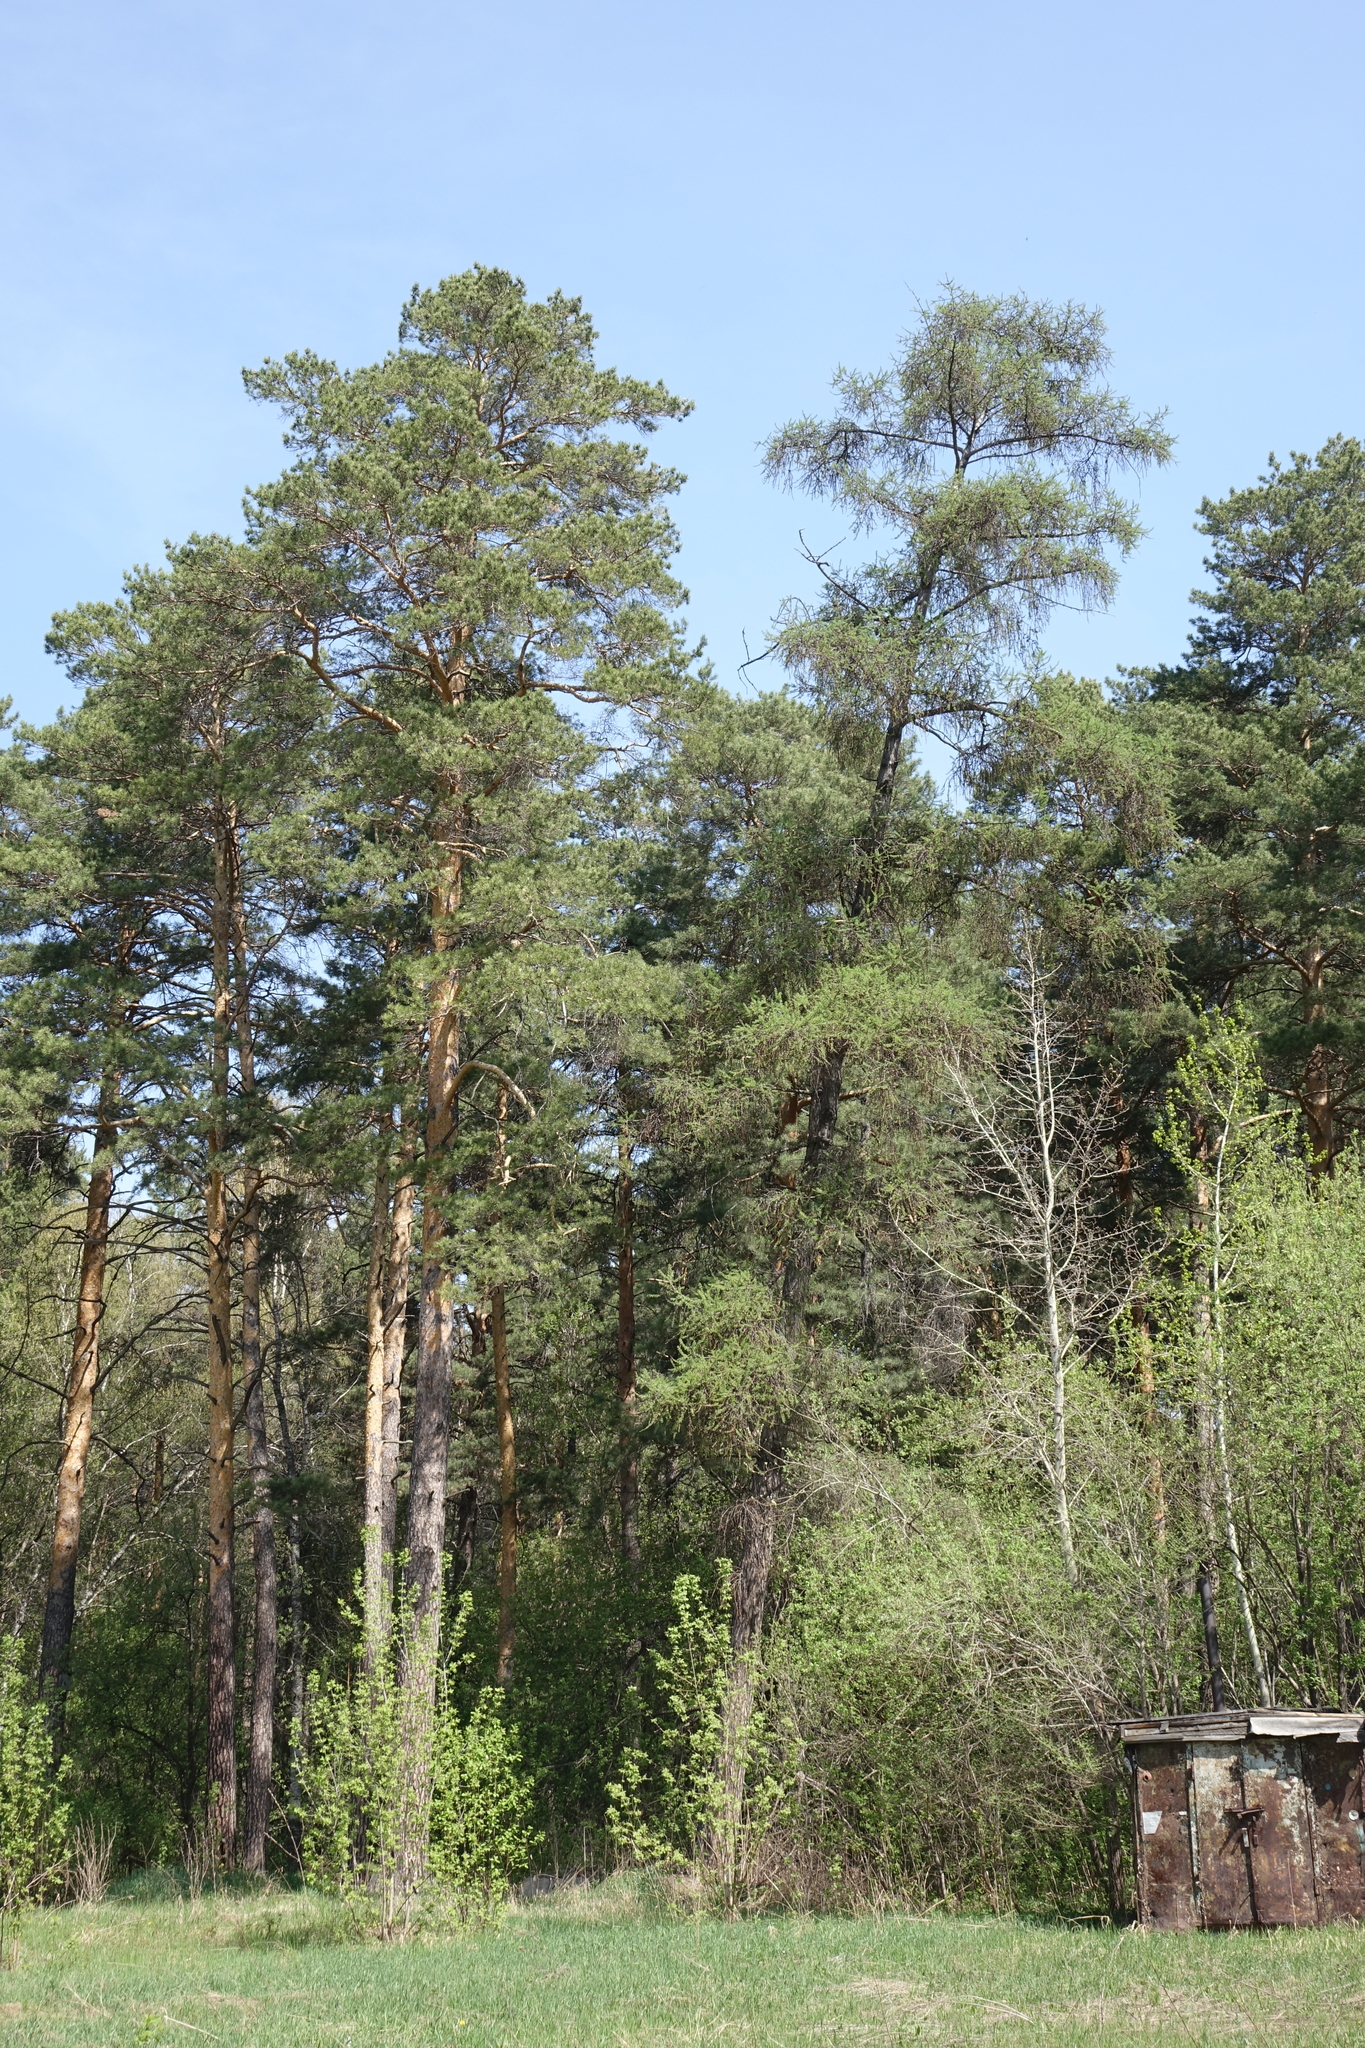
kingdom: Plantae
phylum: Tracheophyta
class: Pinopsida
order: Pinales
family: Pinaceae
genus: Larix
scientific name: Larix sibirica
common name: Siberian larch
